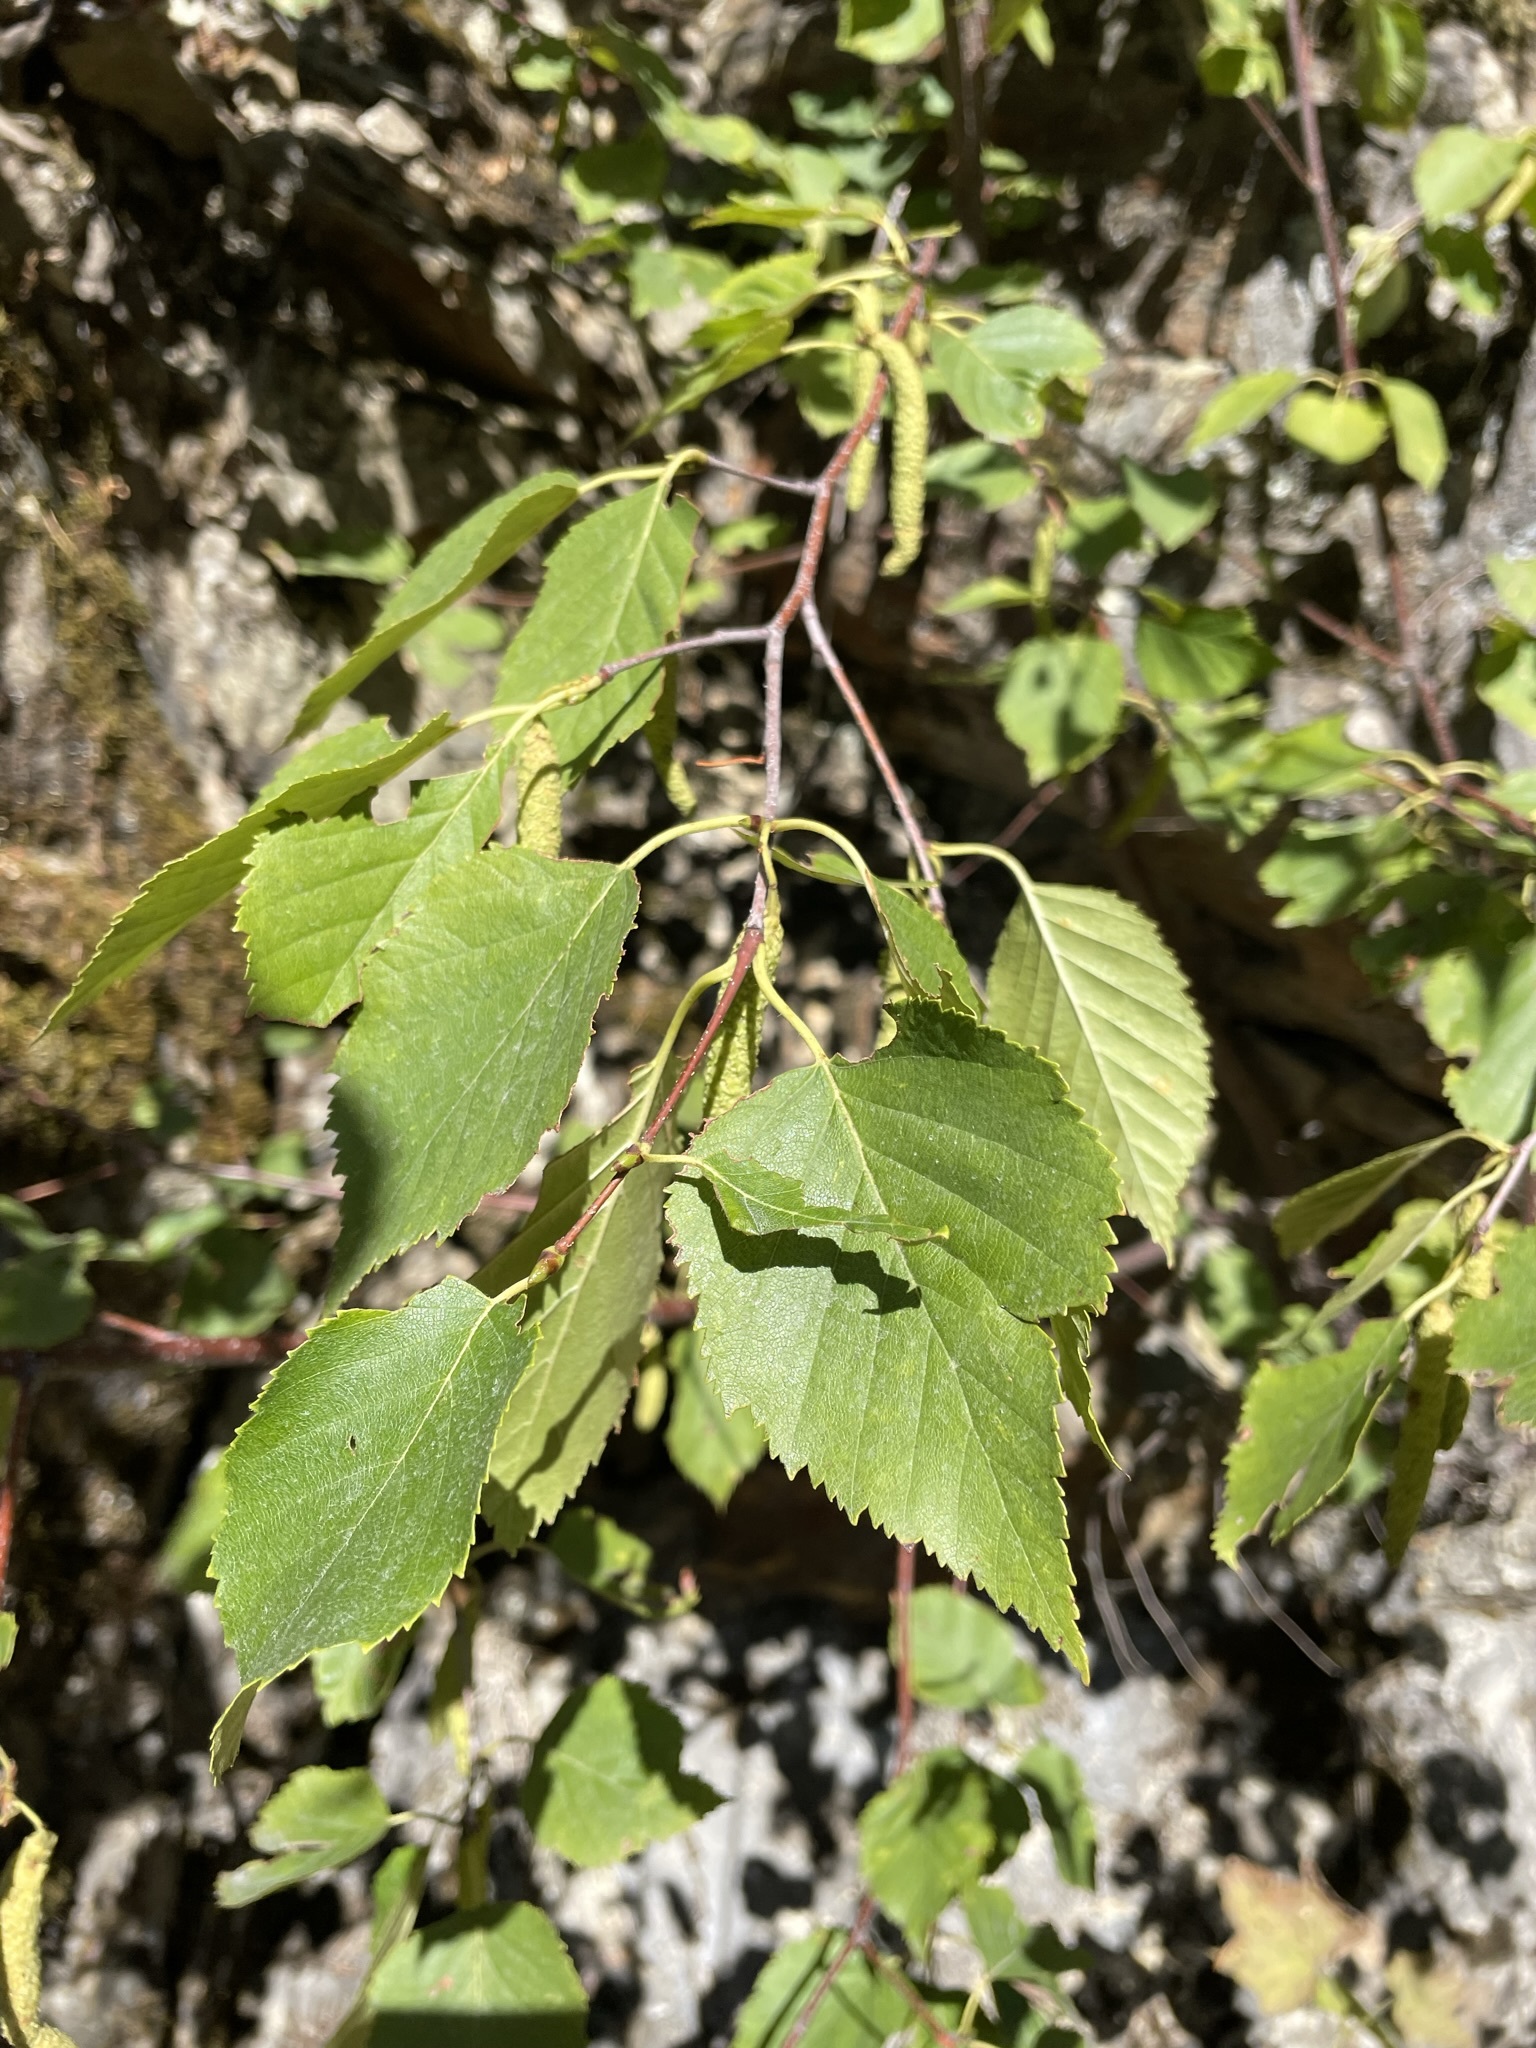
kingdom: Plantae
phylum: Tracheophyta
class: Magnoliopsida
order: Fagales
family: Betulaceae
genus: Betula
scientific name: Betula occidentalis
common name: River birch
